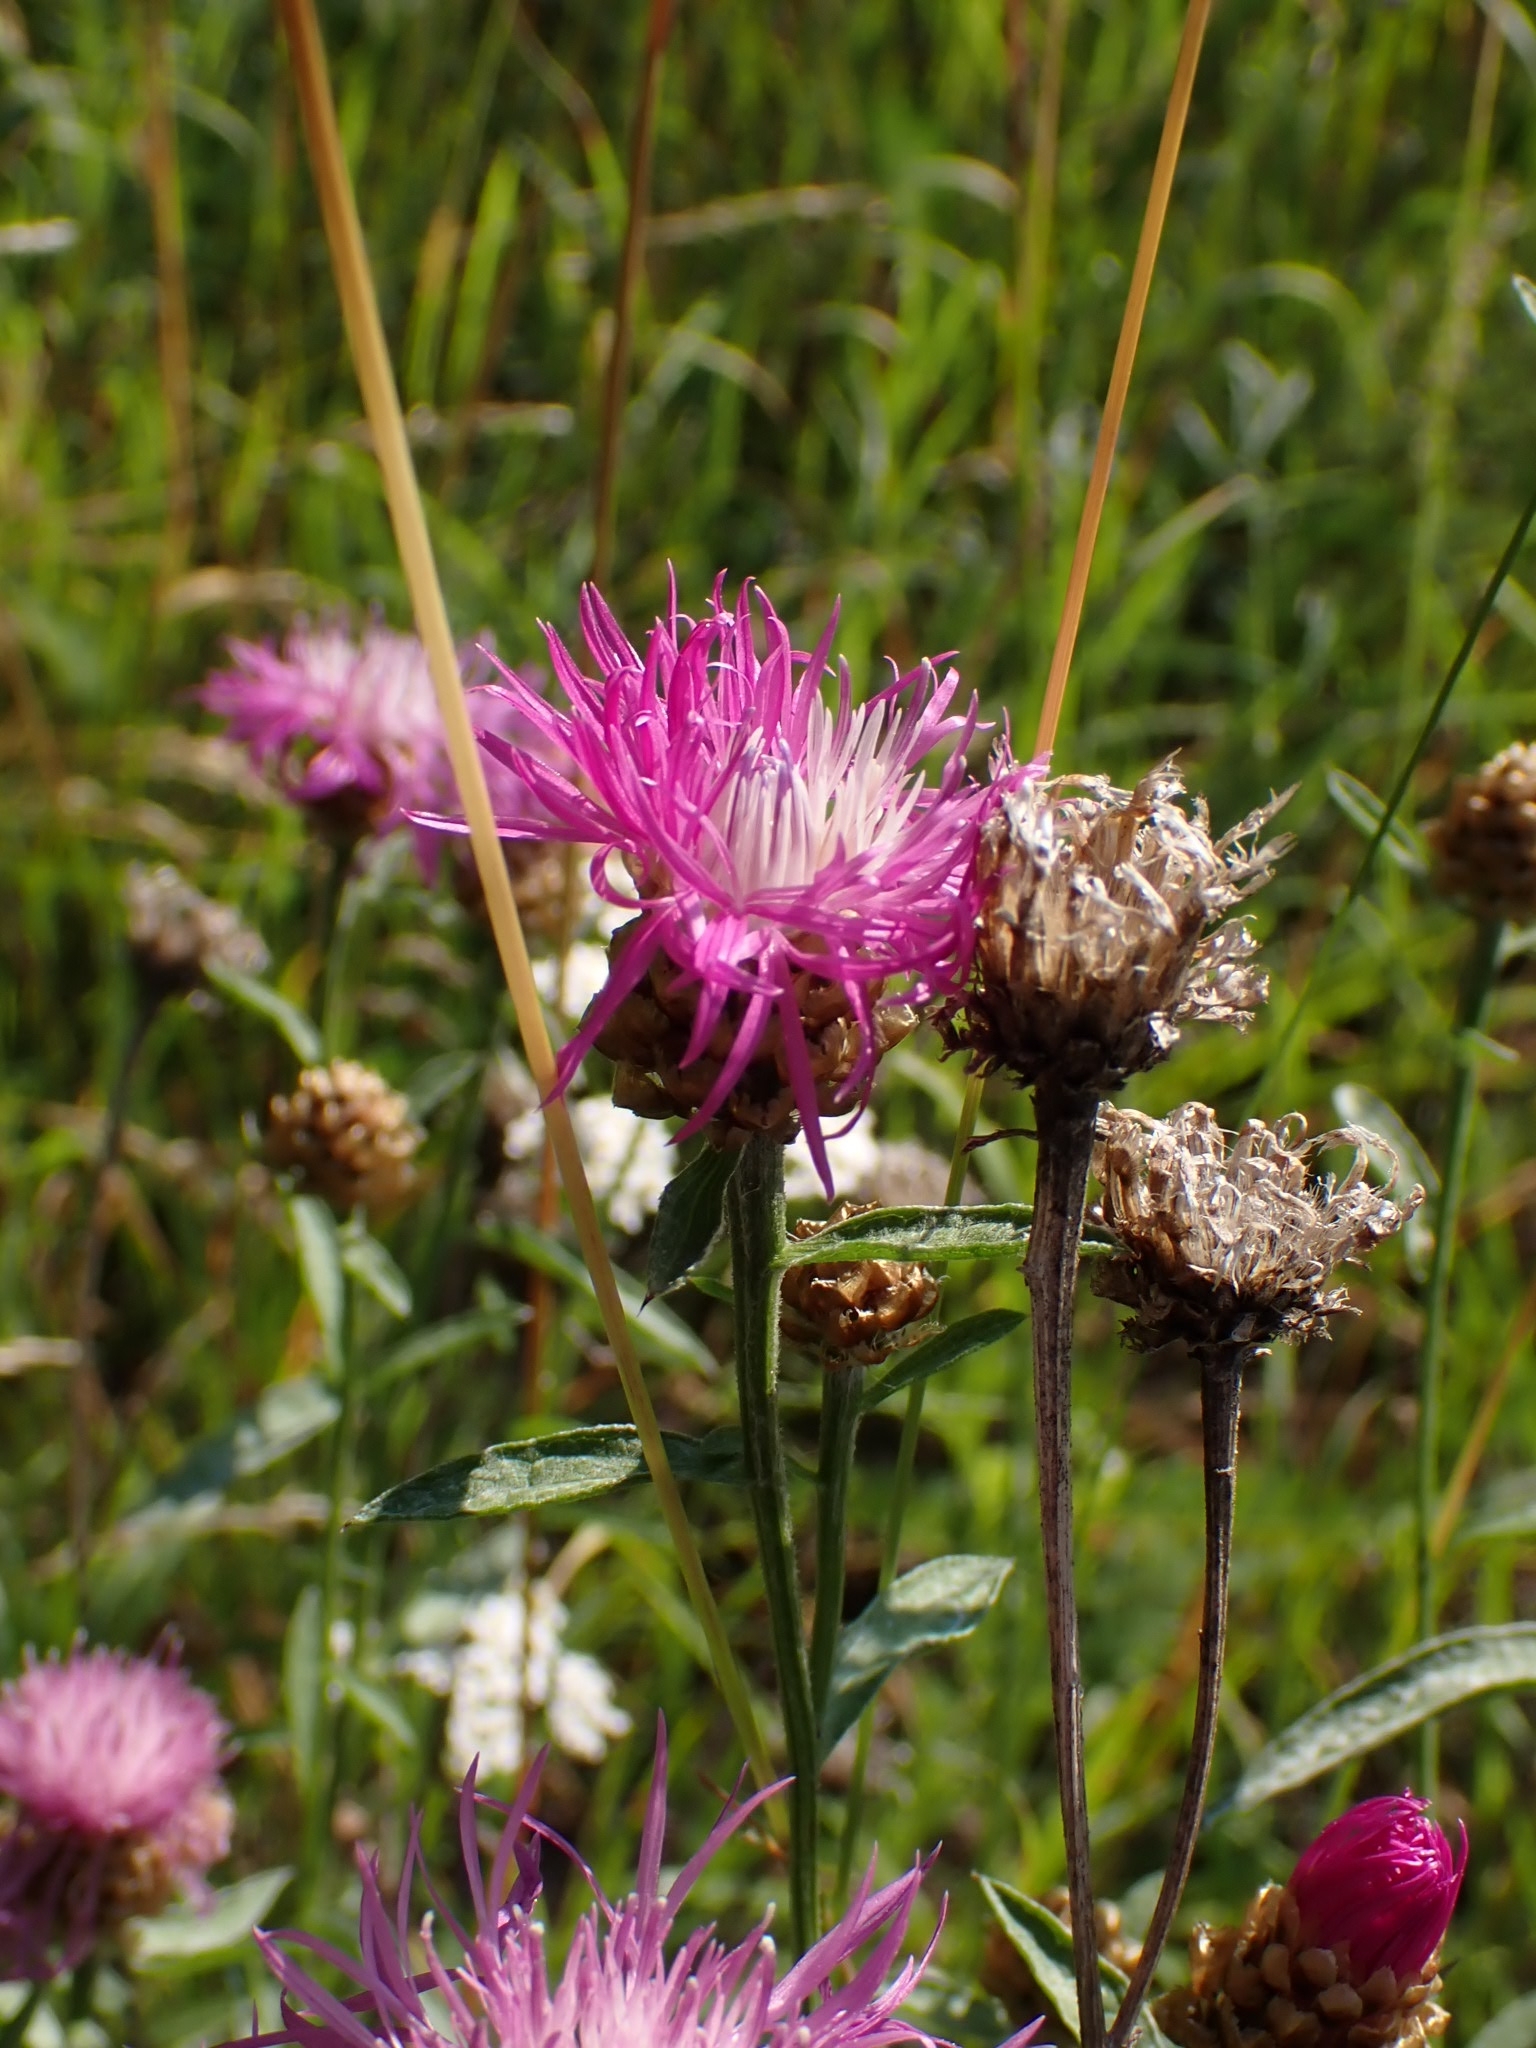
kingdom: Plantae
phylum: Tracheophyta
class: Magnoliopsida
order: Asterales
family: Asteraceae
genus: Centaurea
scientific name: Centaurea jacea
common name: Brown knapweed
